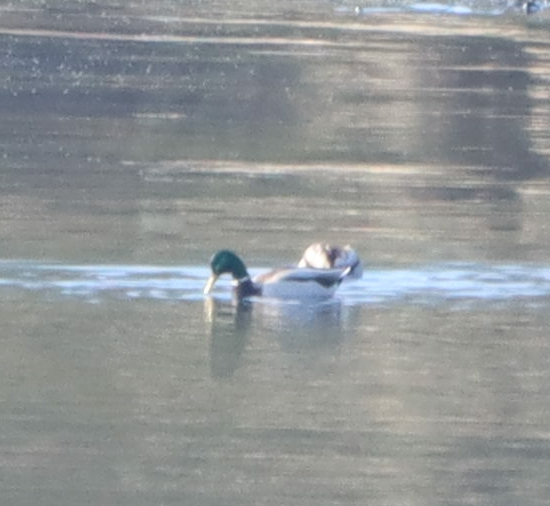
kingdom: Animalia
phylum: Chordata
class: Aves
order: Anseriformes
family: Anatidae
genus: Anas
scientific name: Anas platyrhynchos
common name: Mallard
